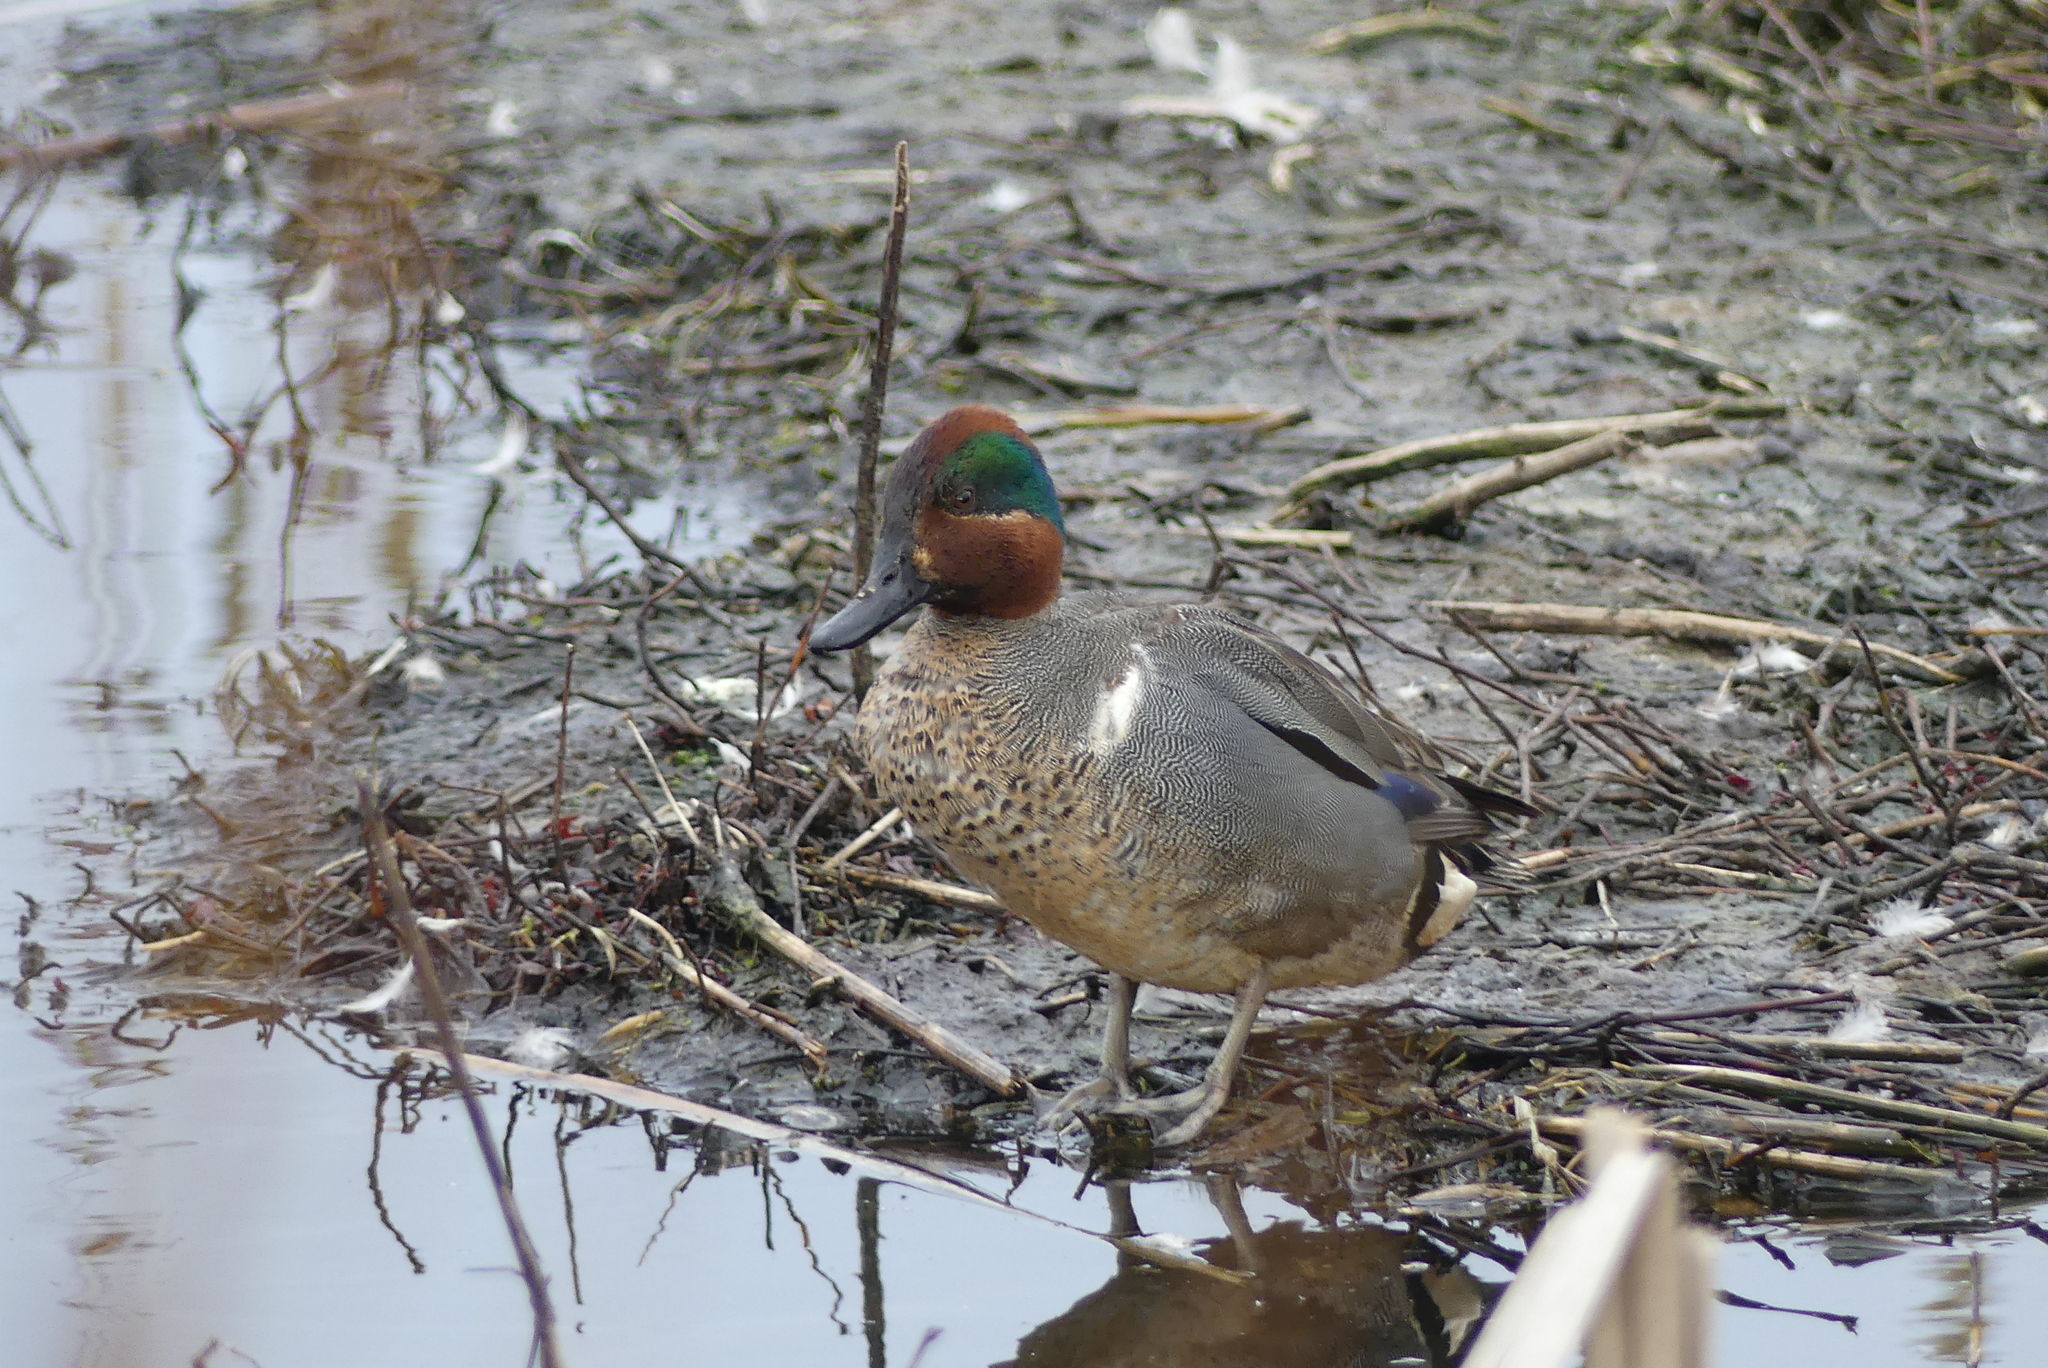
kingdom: Animalia
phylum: Chordata
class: Aves
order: Anseriformes
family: Anatidae
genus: Anas
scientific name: Anas crecca
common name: Eurasian teal
